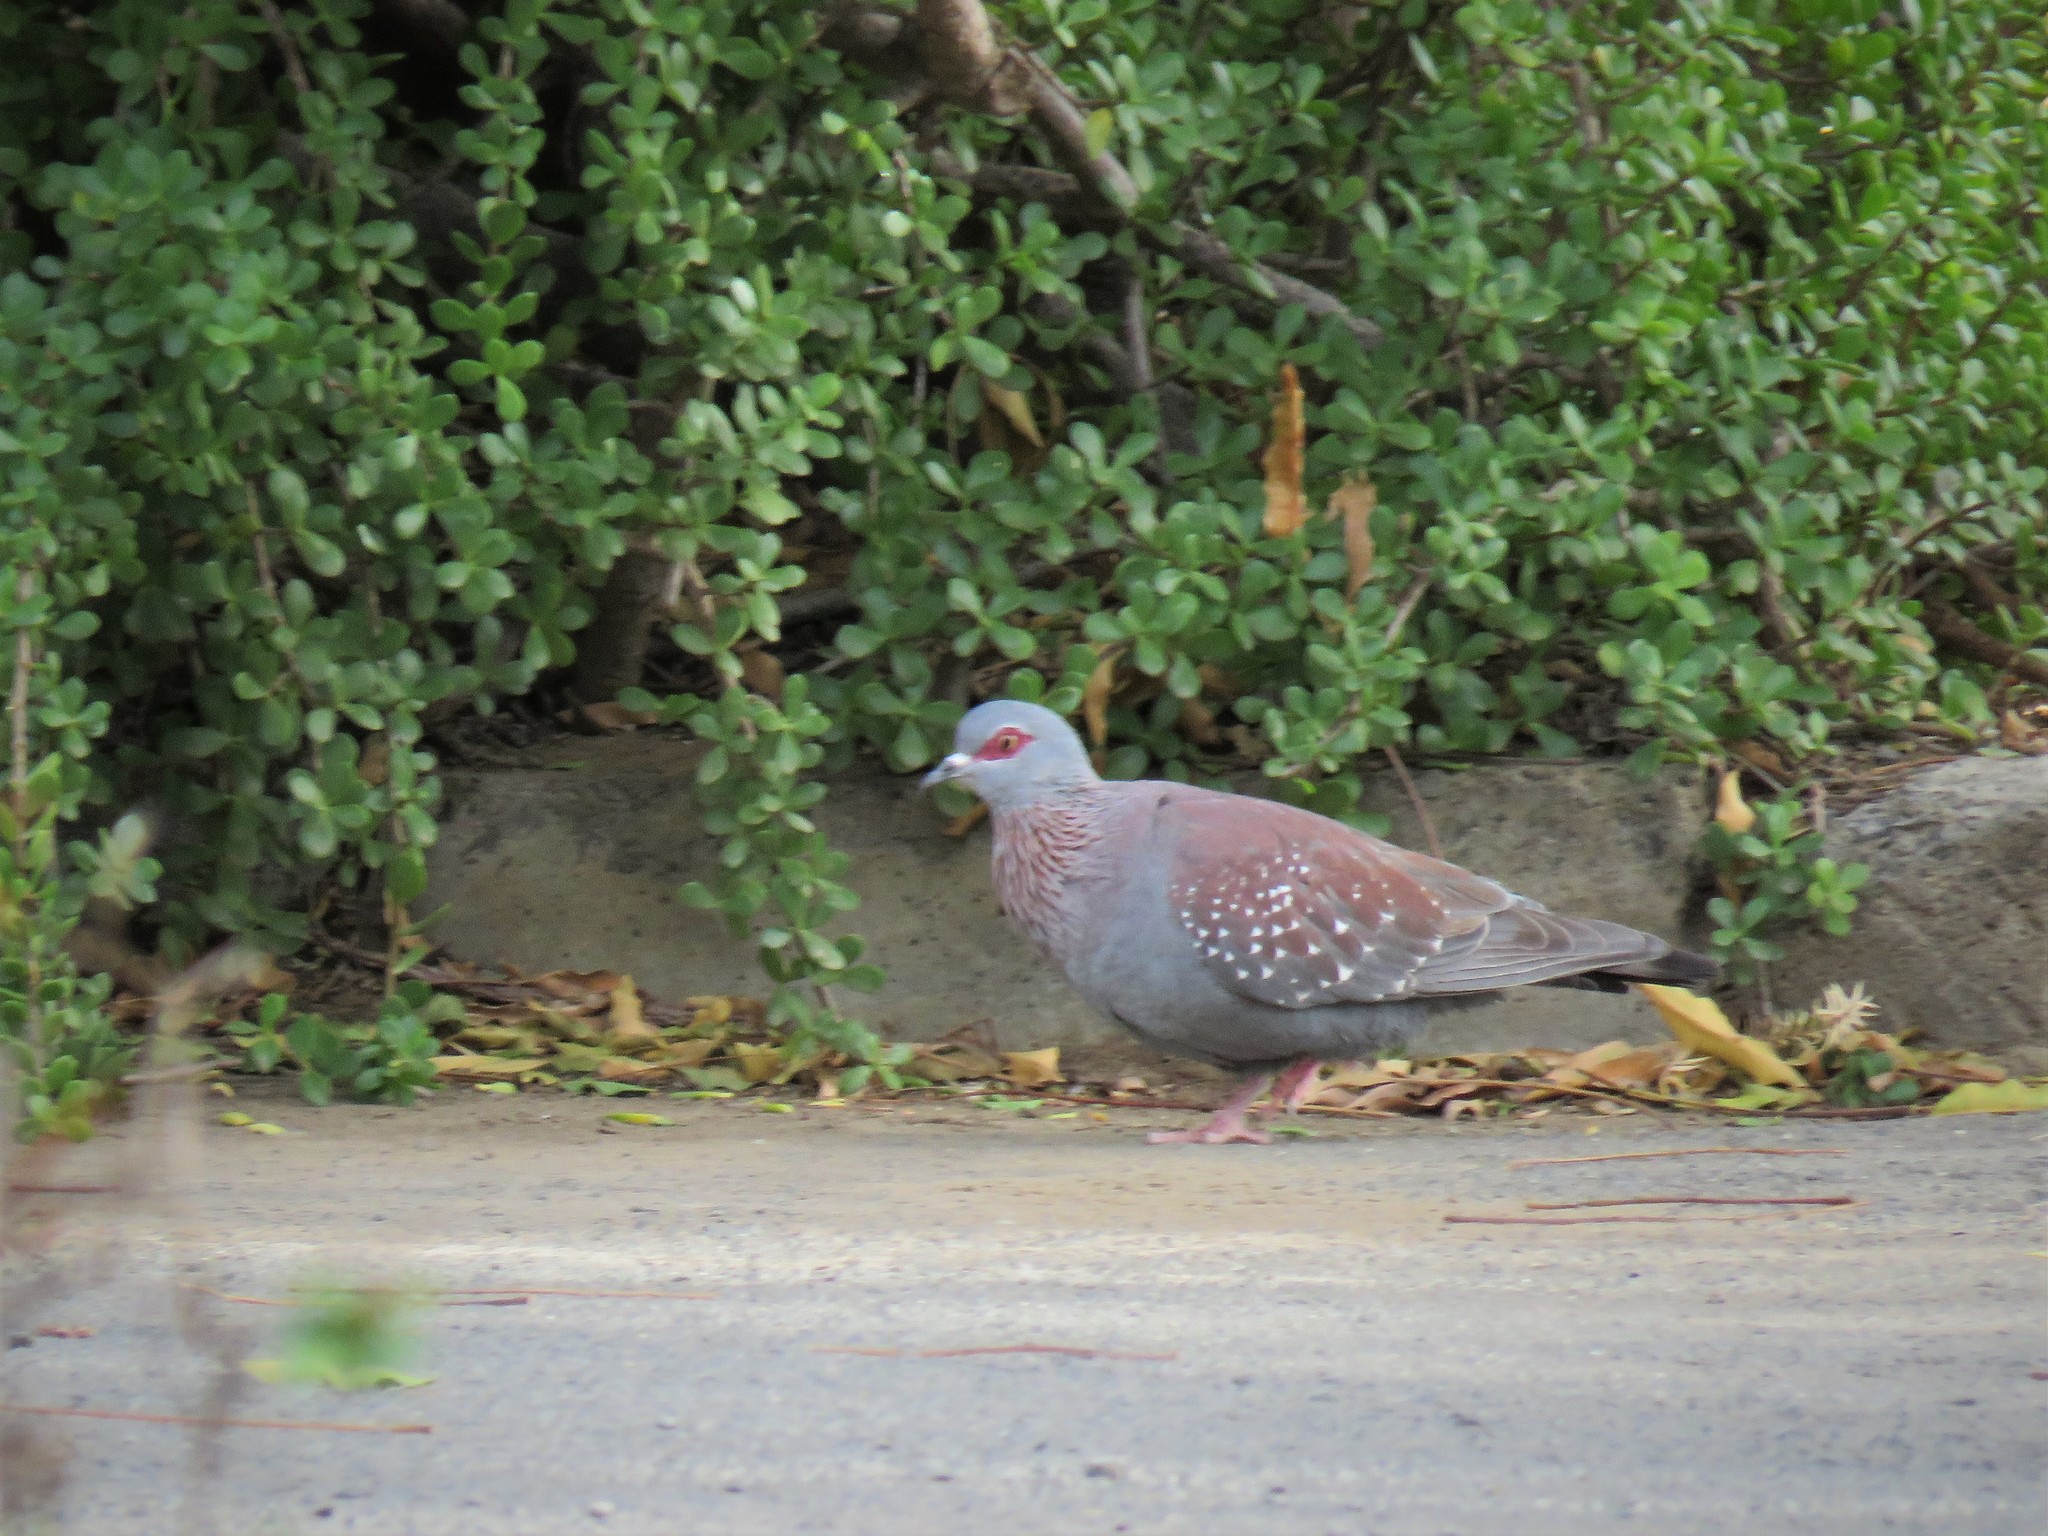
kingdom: Animalia
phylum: Chordata
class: Aves
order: Columbiformes
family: Columbidae
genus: Columba
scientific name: Columba guinea
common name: Speckled pigeon
